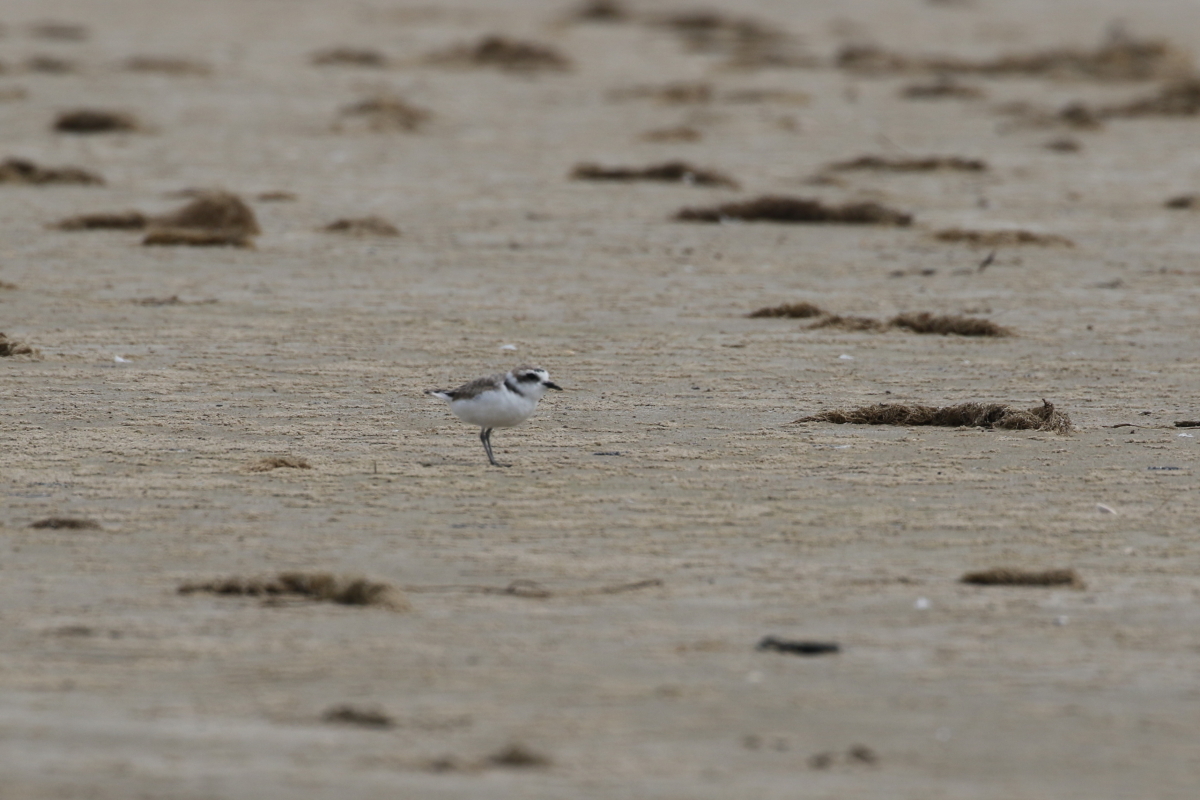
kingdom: Animalia
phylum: Chordata
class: Aves
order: Charadriiformes
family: Charadriidae
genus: Anarhynchus
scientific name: Anarhynchus
